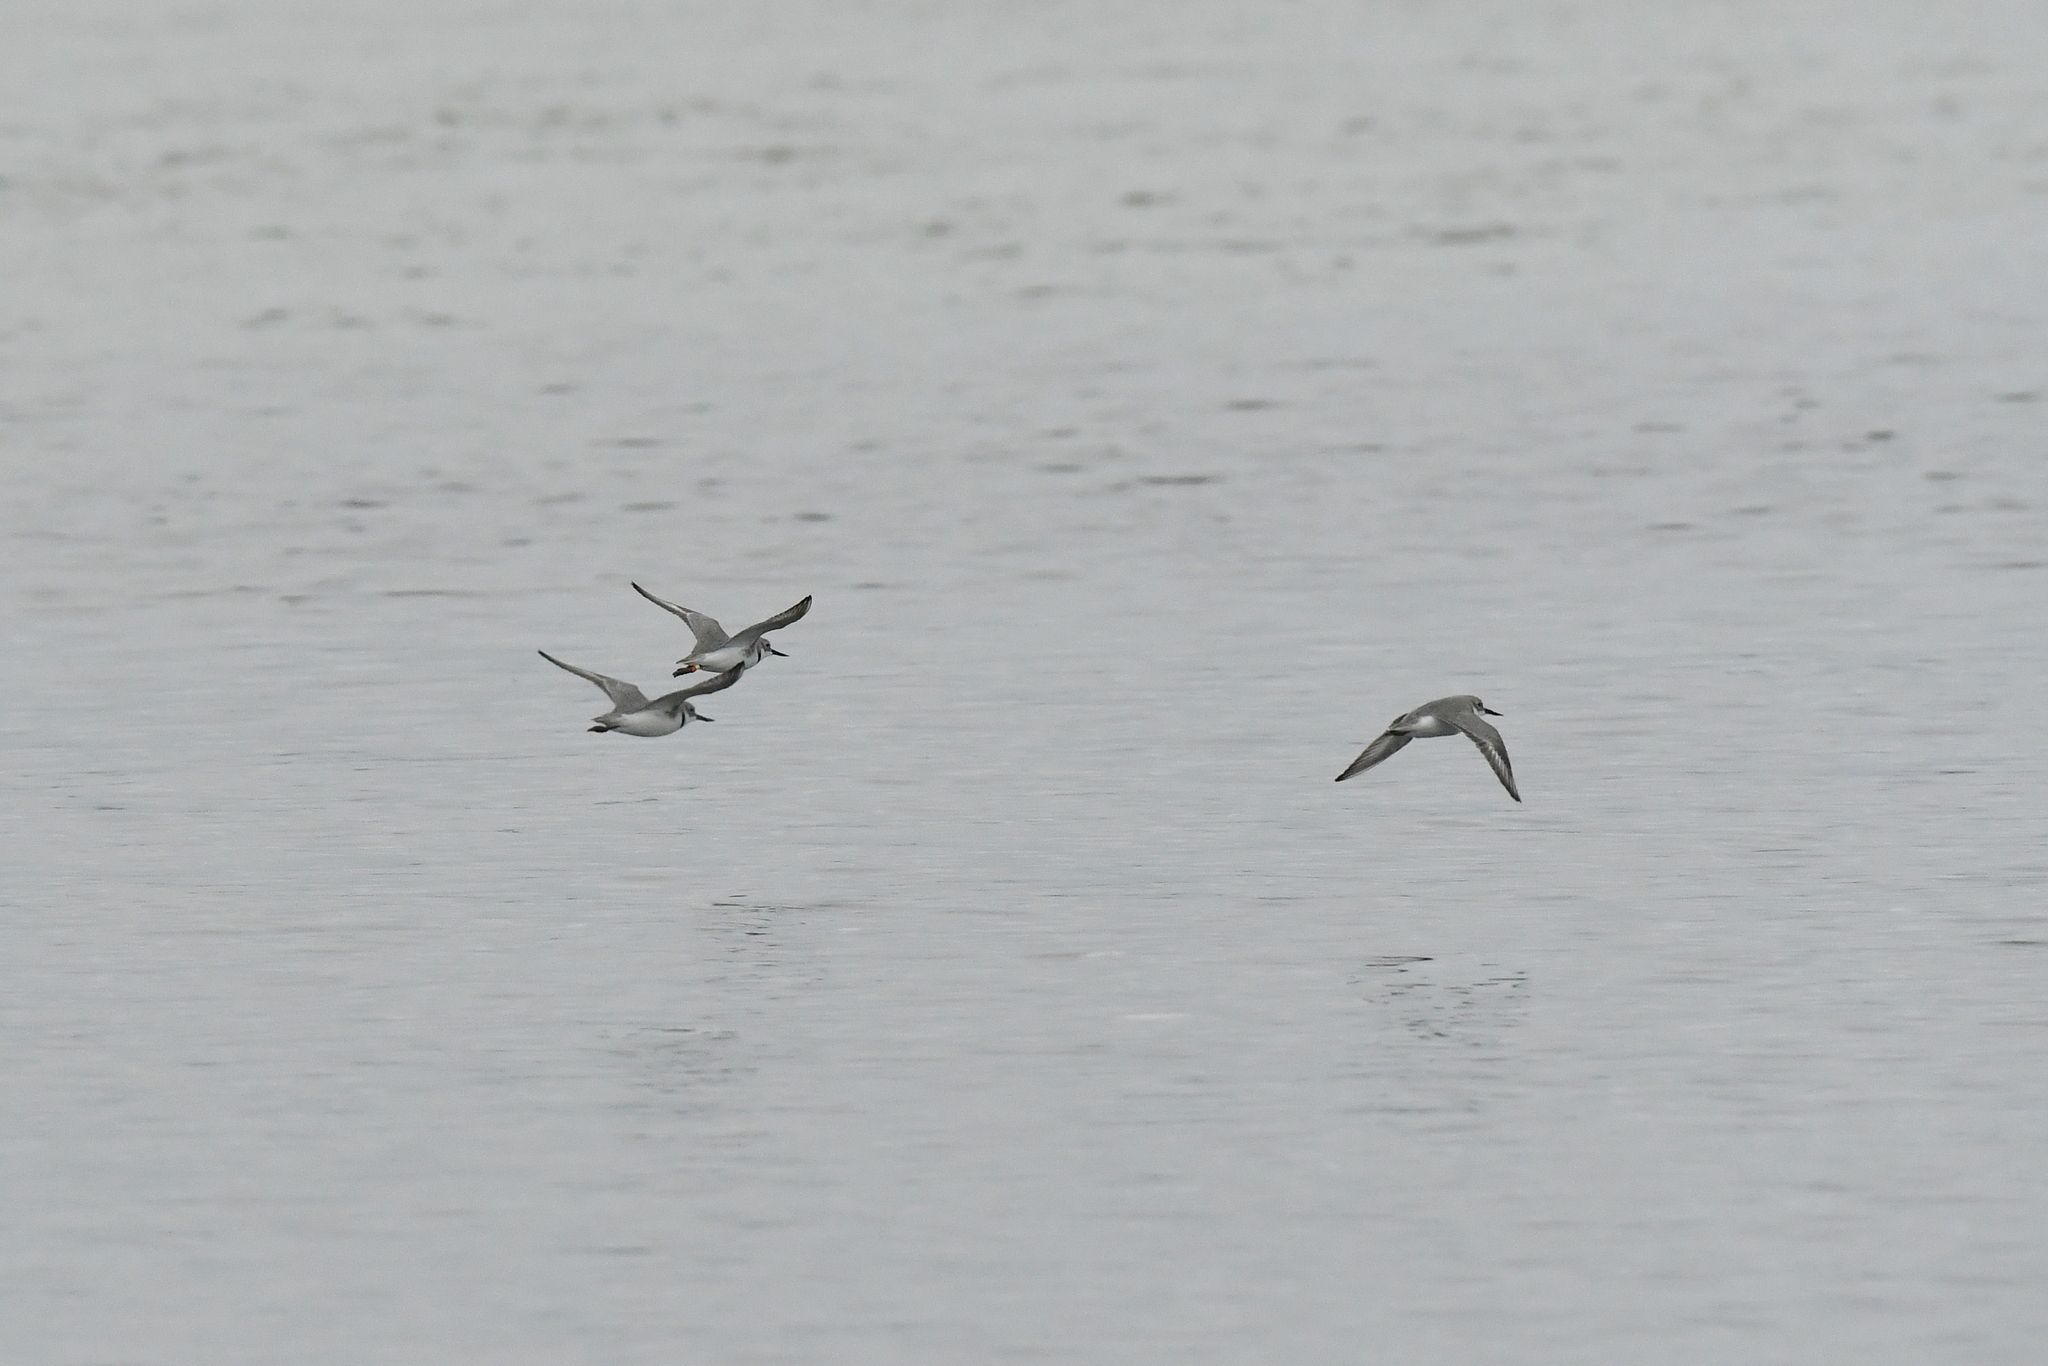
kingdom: Animalia
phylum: Chordata
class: Aves
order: Charadriiformes
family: Charadriidae
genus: Anarhynchus
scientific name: Anarhynchus frontalis
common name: Wrybill
